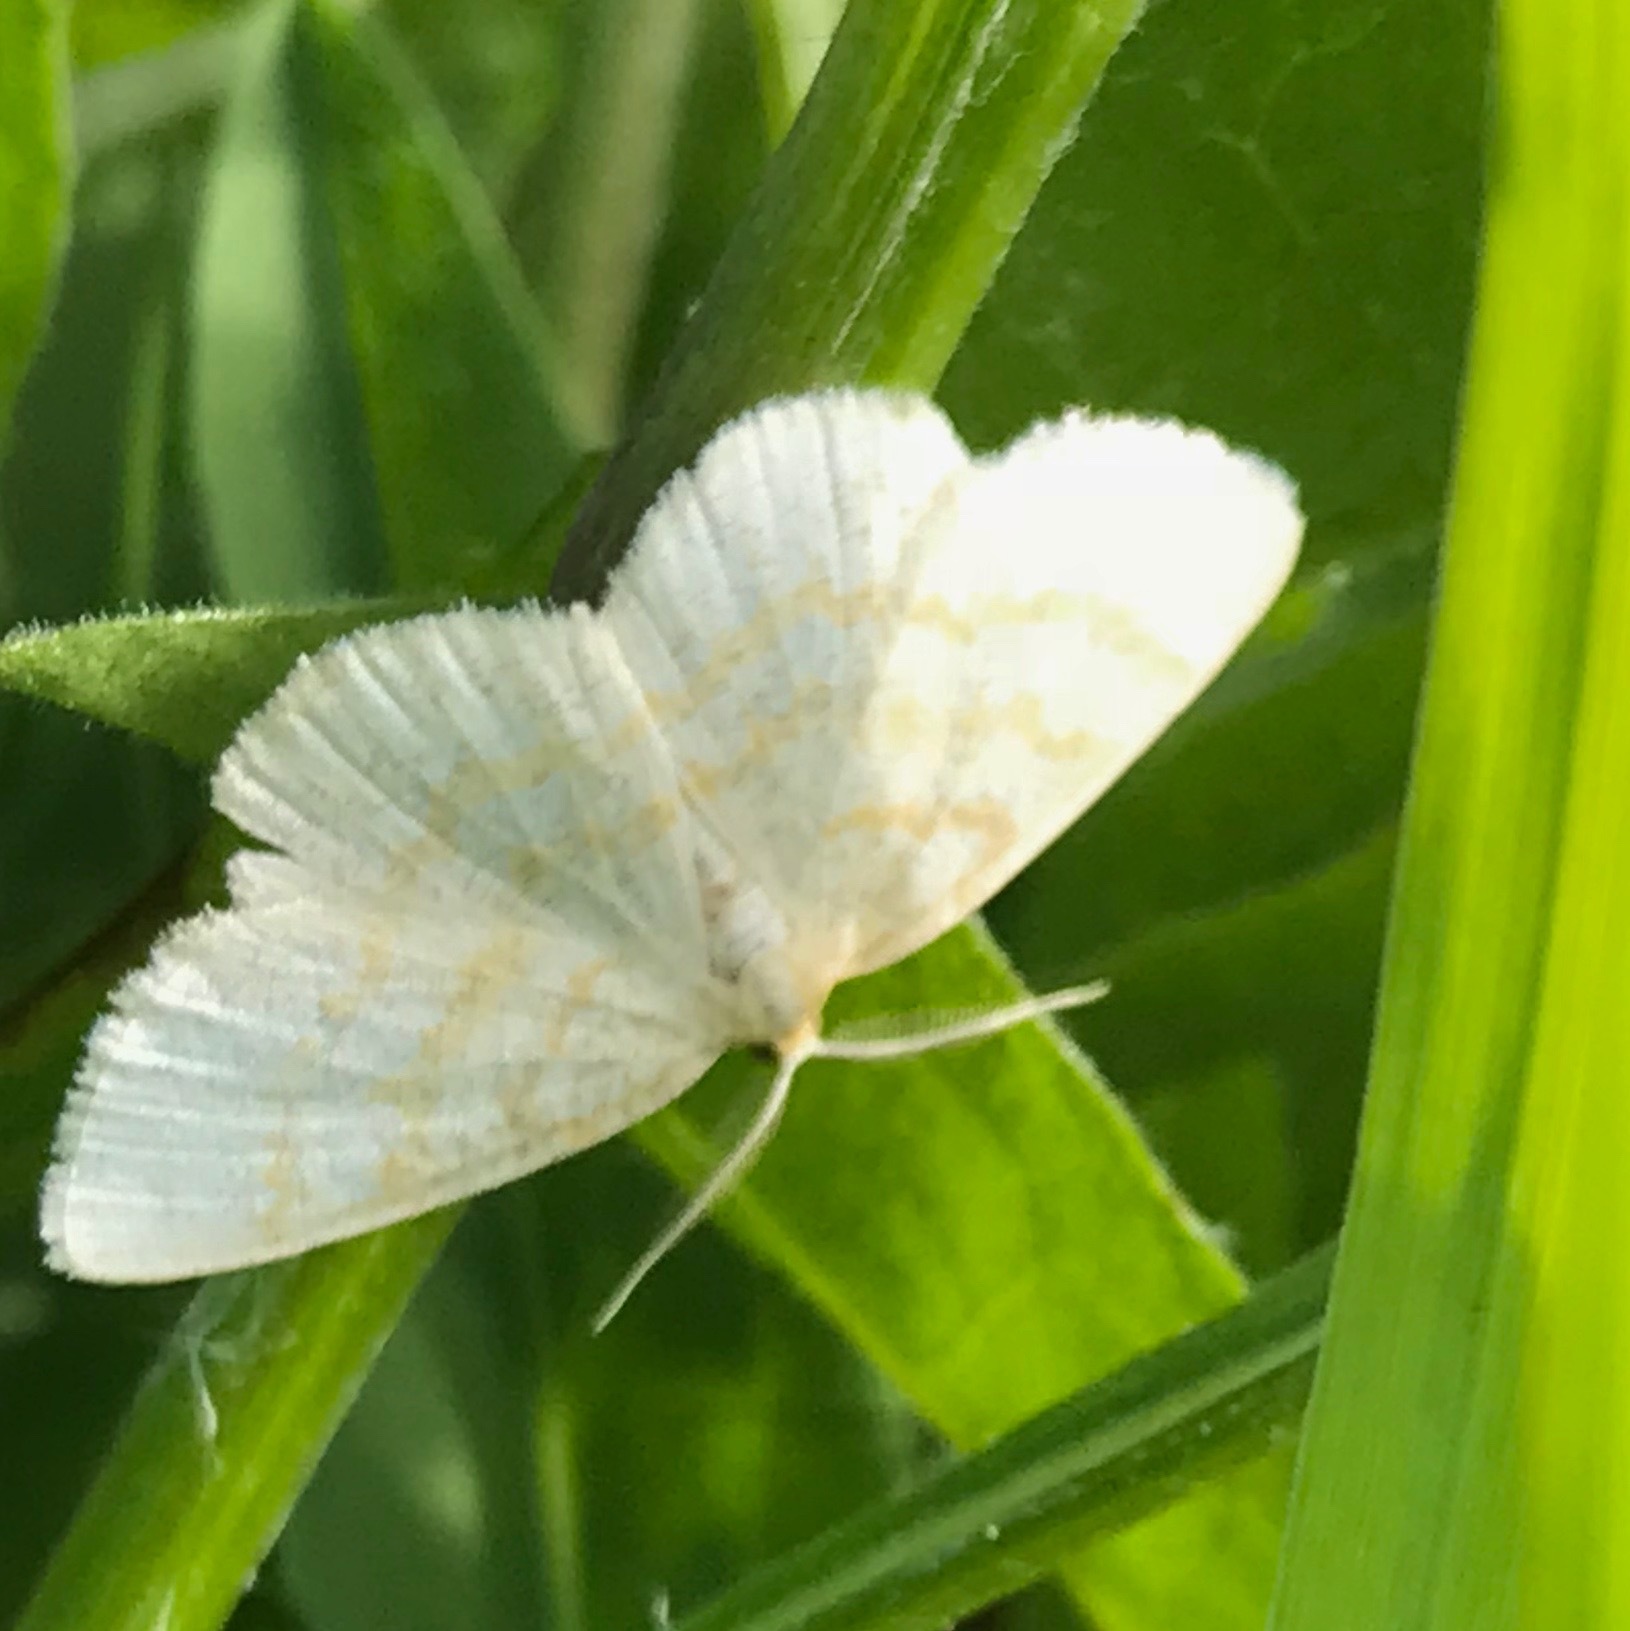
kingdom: Animalia
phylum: Arthropoda
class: Insecta
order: Lepidoptera
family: Geometridae
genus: Cabera
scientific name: Cabera erythemaria
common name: Yellow-dusted cream moth
